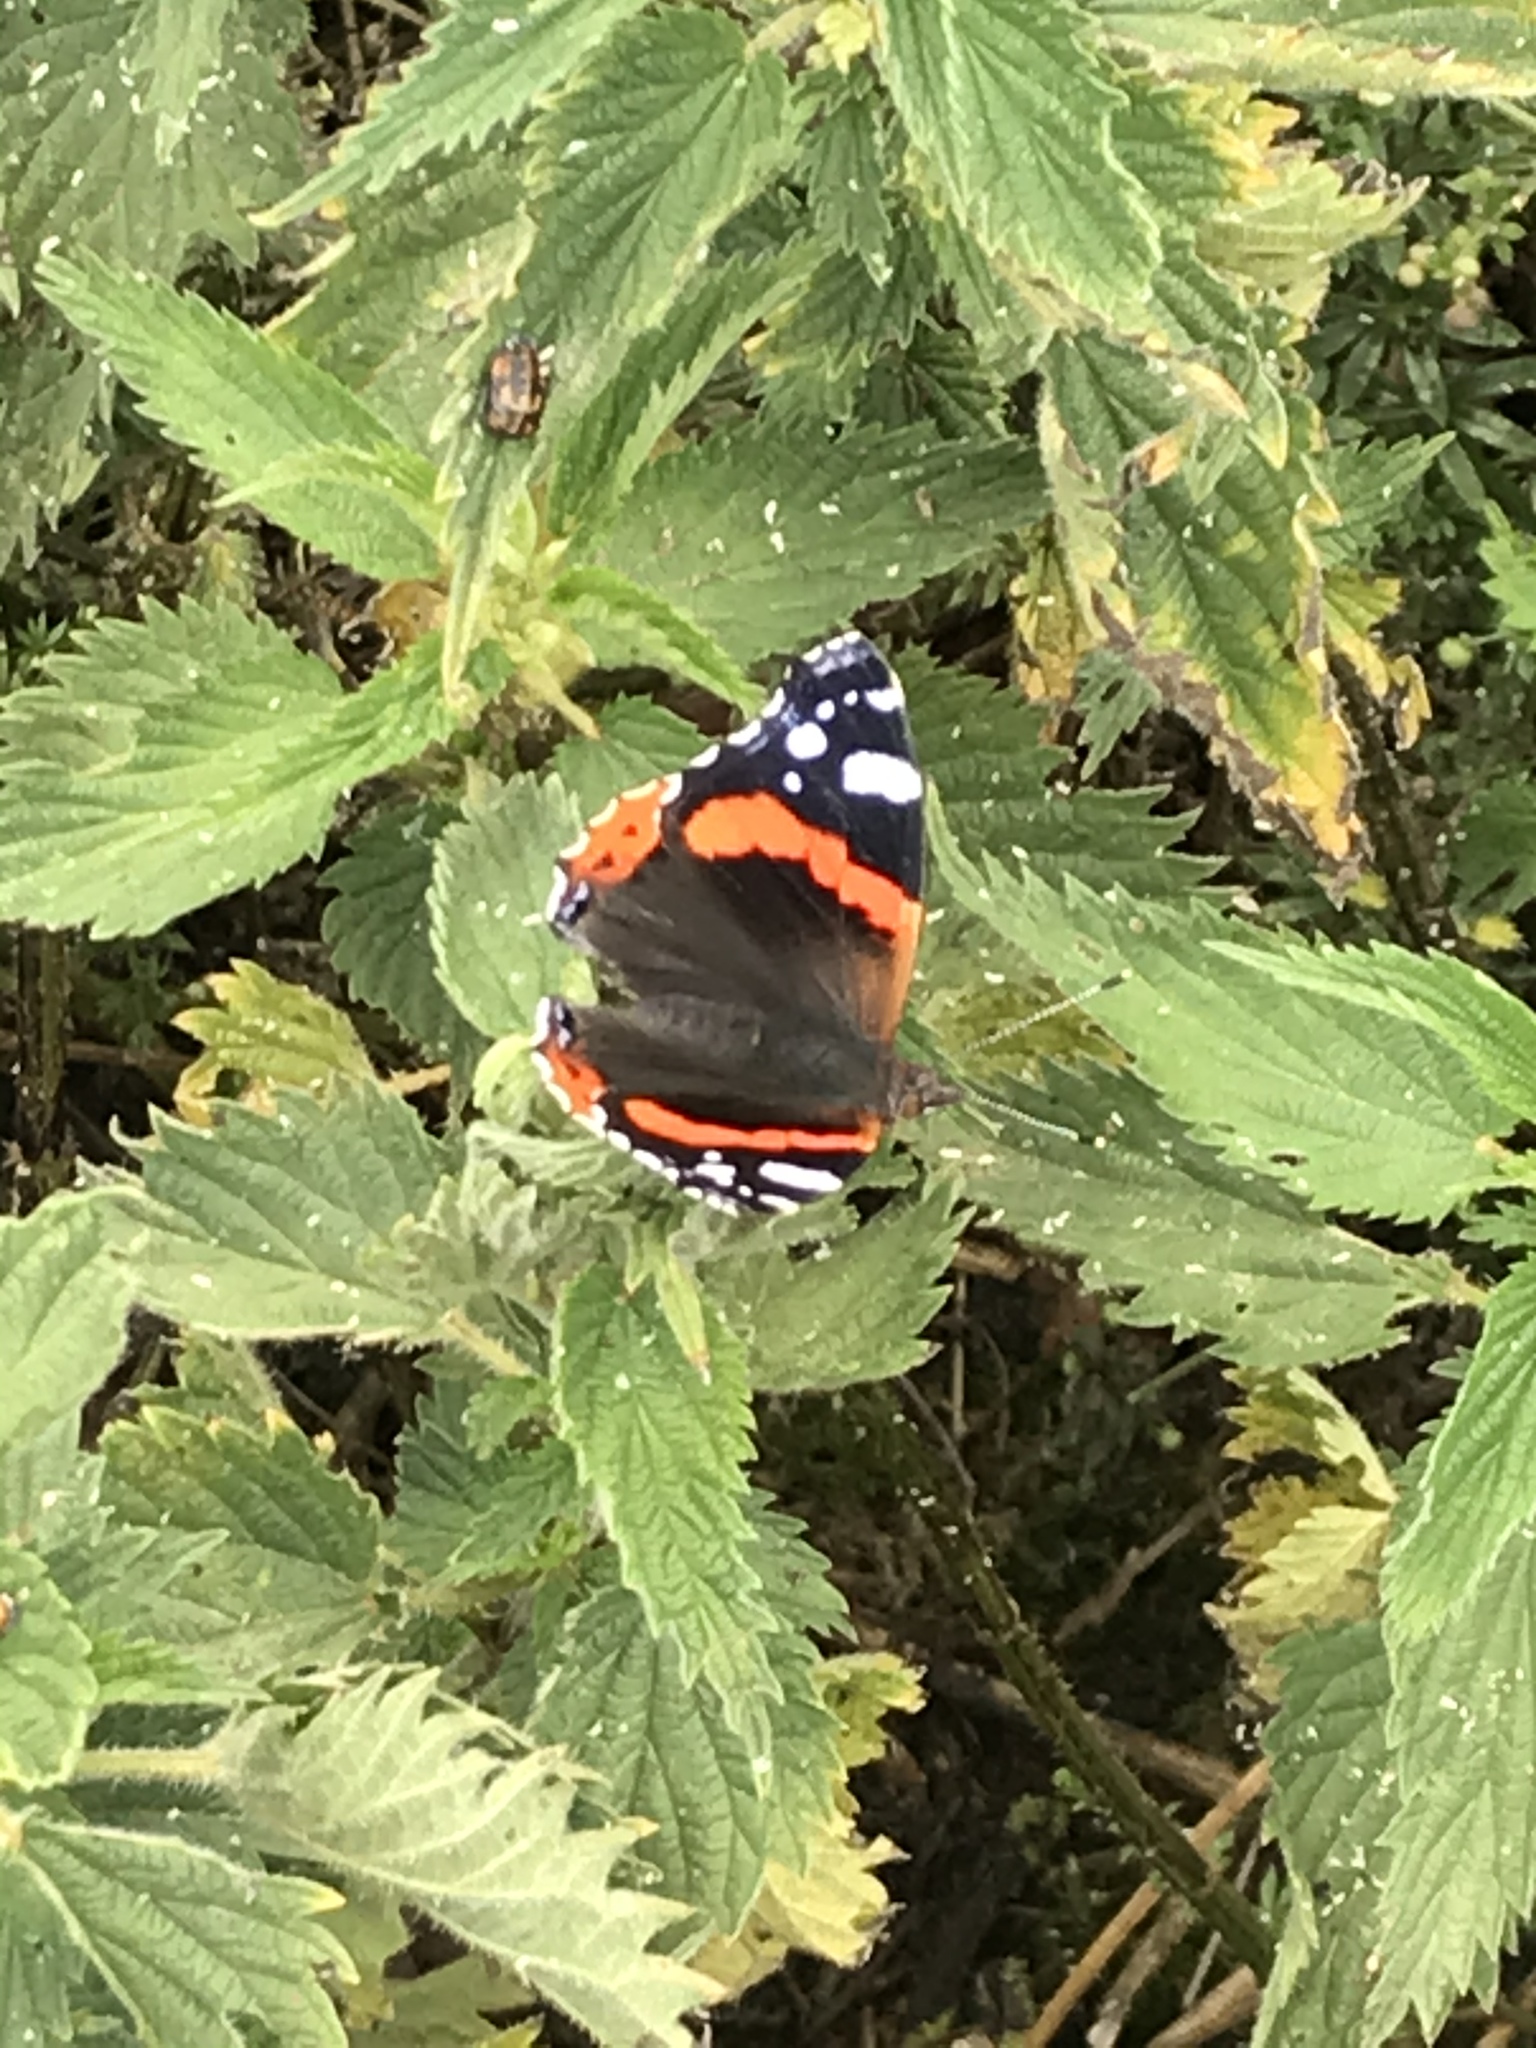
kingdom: Animalia
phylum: Arthropoda
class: Insecta
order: Lepidoptera
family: Nymphalidae
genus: Vanessa
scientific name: Vanessa atalanta
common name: Red admiral
